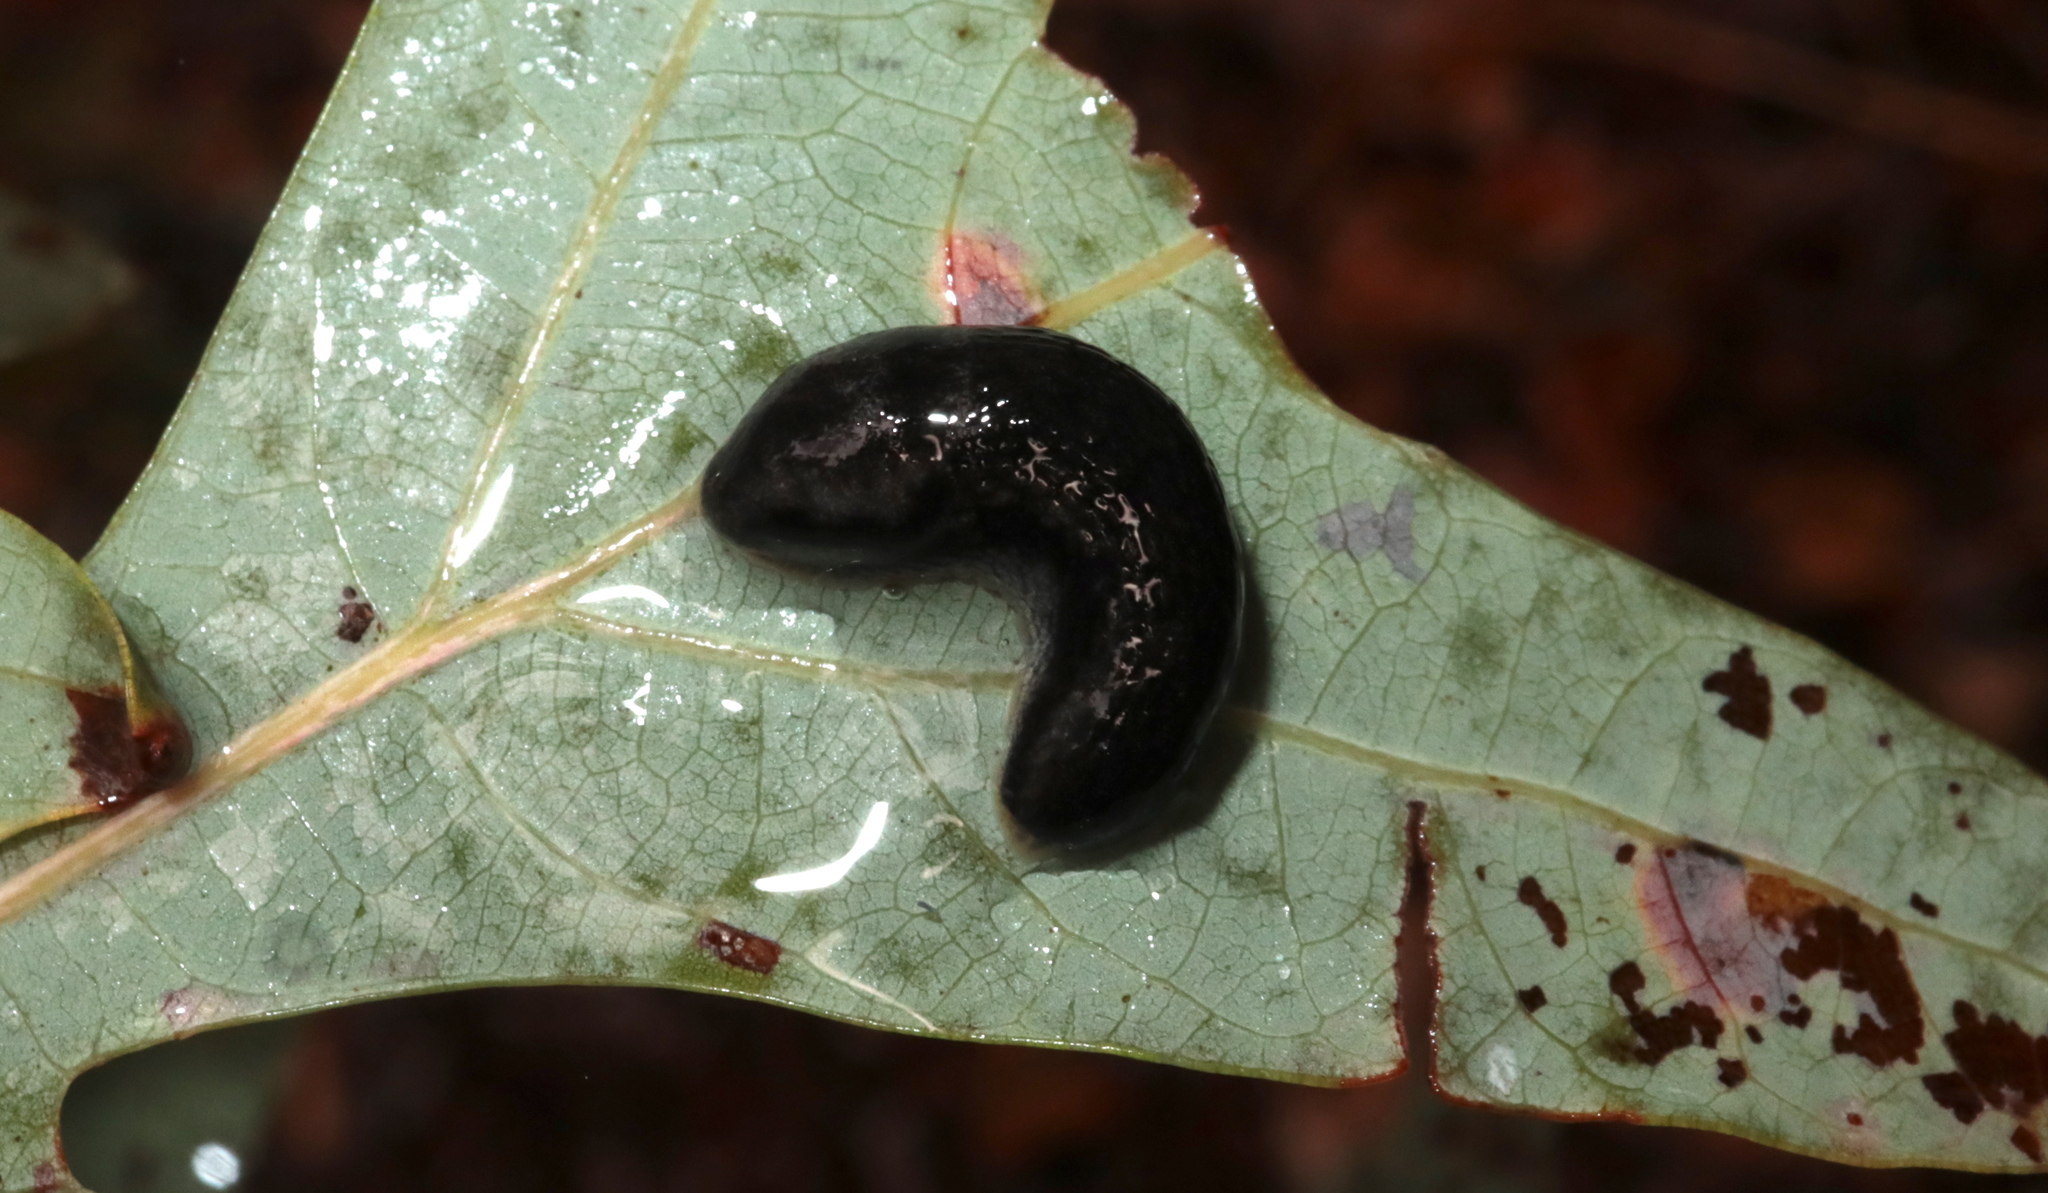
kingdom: Animalia
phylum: Mollusca
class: Gastropoda
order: Stylommatophora
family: Arionidae
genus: Arion
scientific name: Arion hortensis
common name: Garden arion
